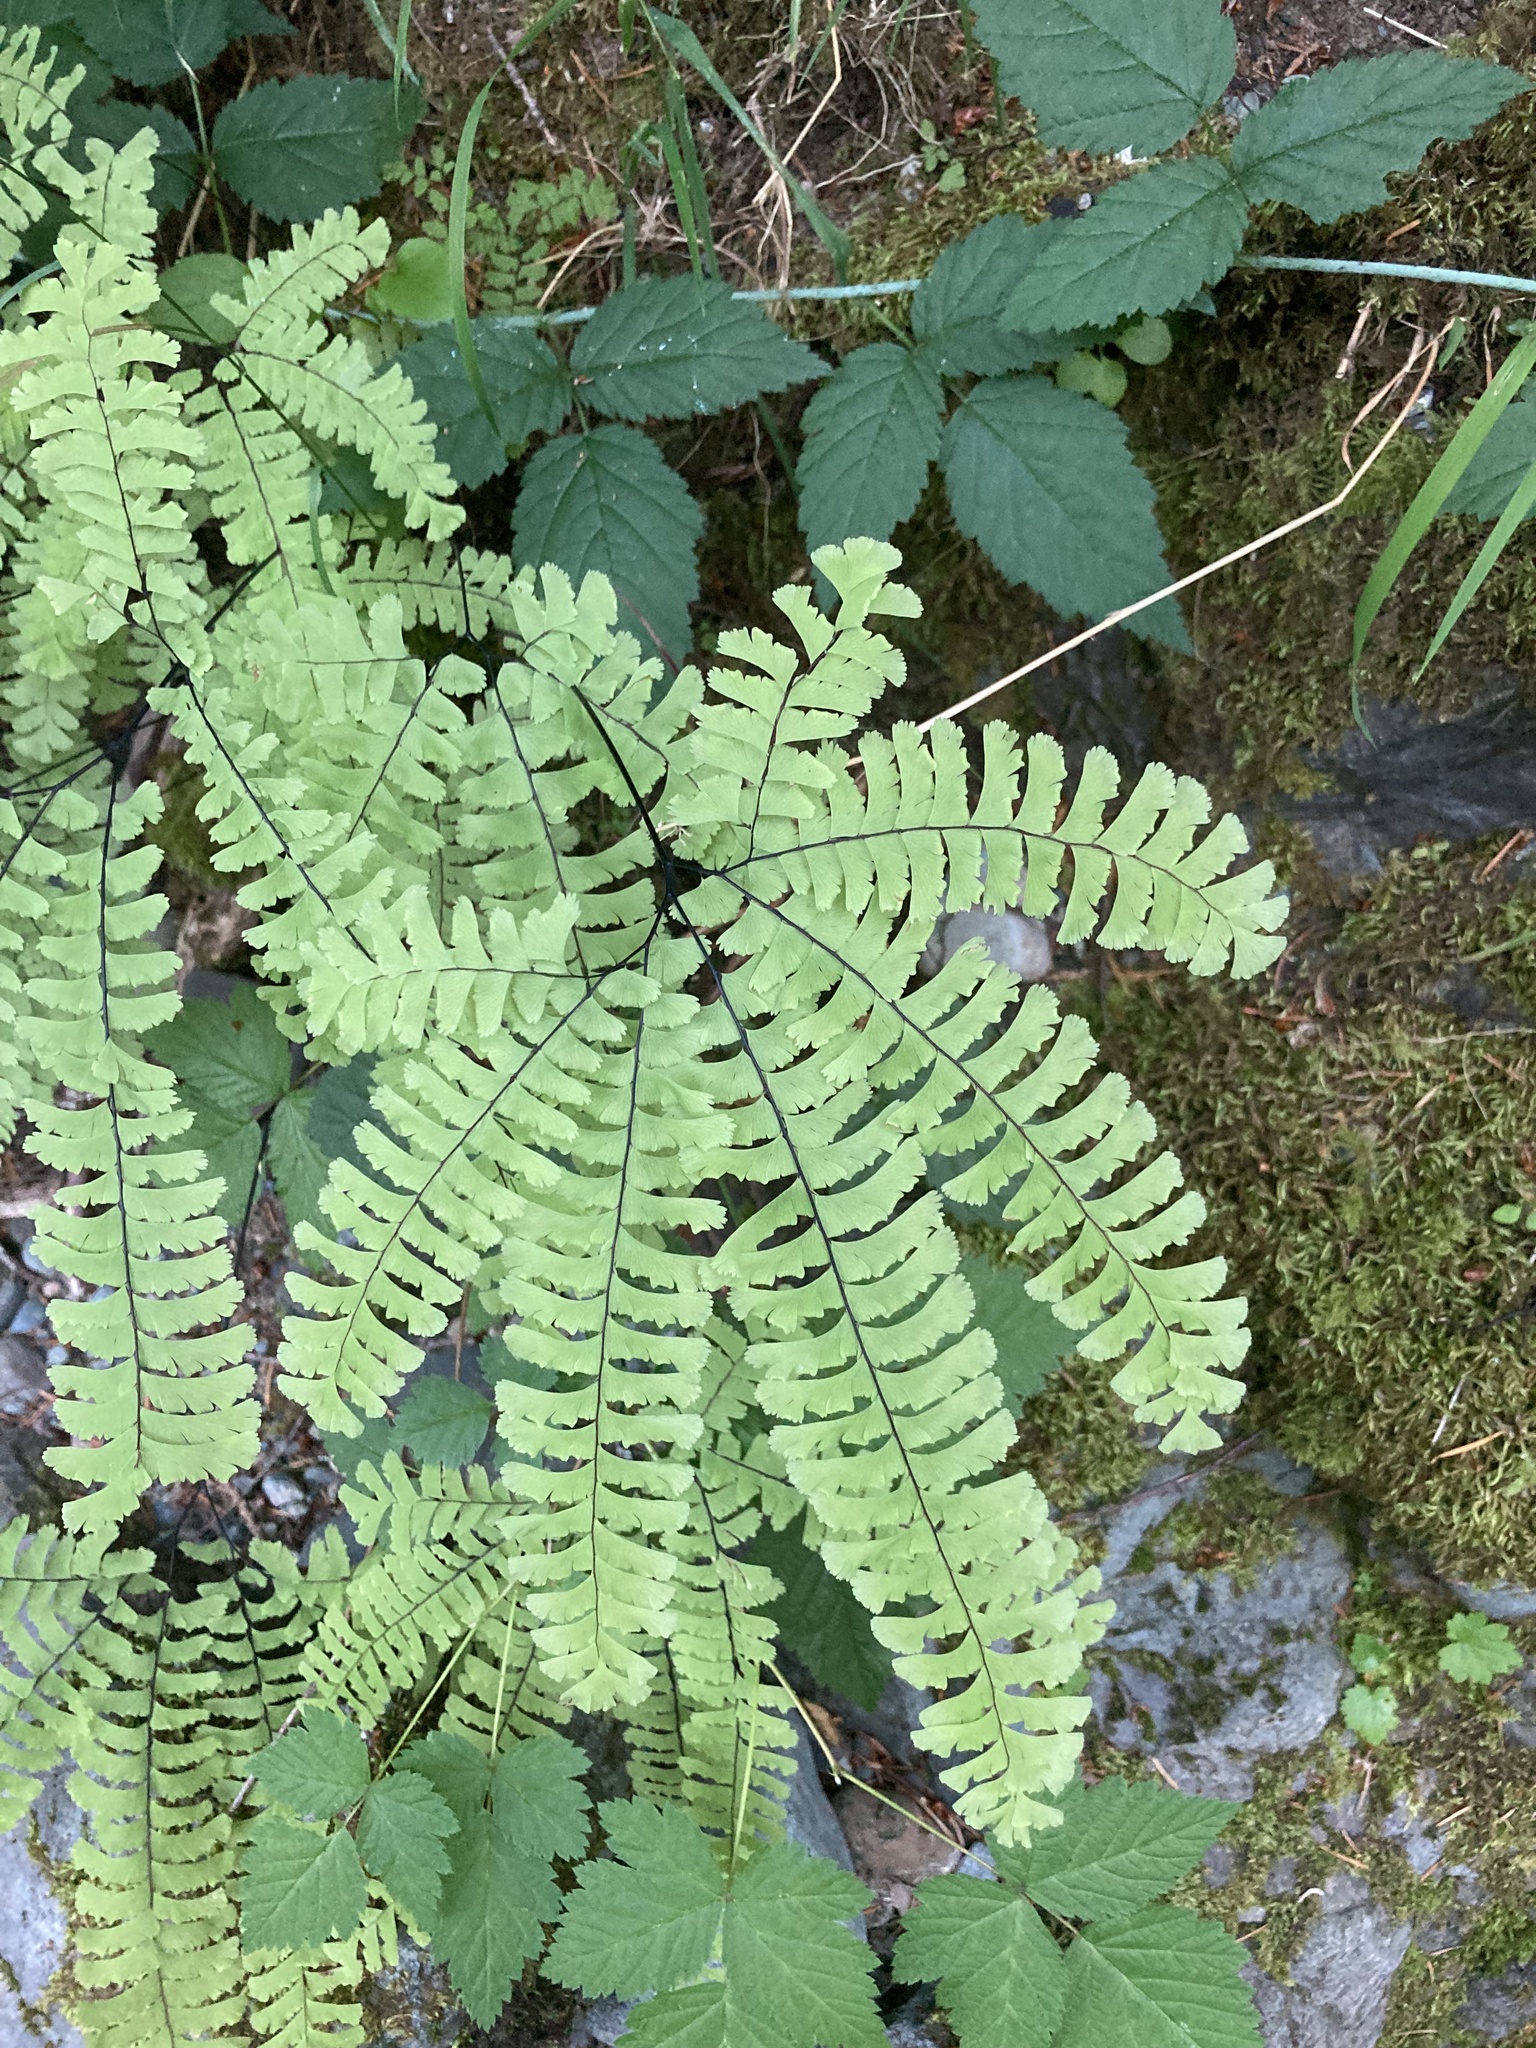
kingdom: Plantae
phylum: Tracheophyta
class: Polypodiopsida
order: Polypodiales
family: Pteridaceae
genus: Adiantum
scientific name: Adiantum aleuticum
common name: Aleutian maidenhair fern
